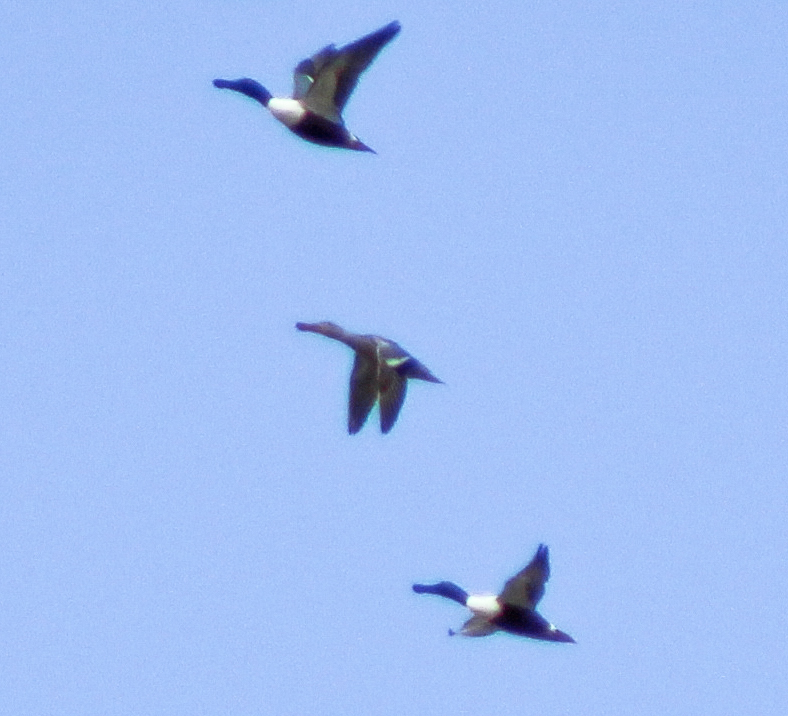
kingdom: Animalia
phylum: Chordata
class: Aves
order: Anseriformes
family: Anatidae
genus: Spatula
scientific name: Spatula clypeata
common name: Northern shoveler
